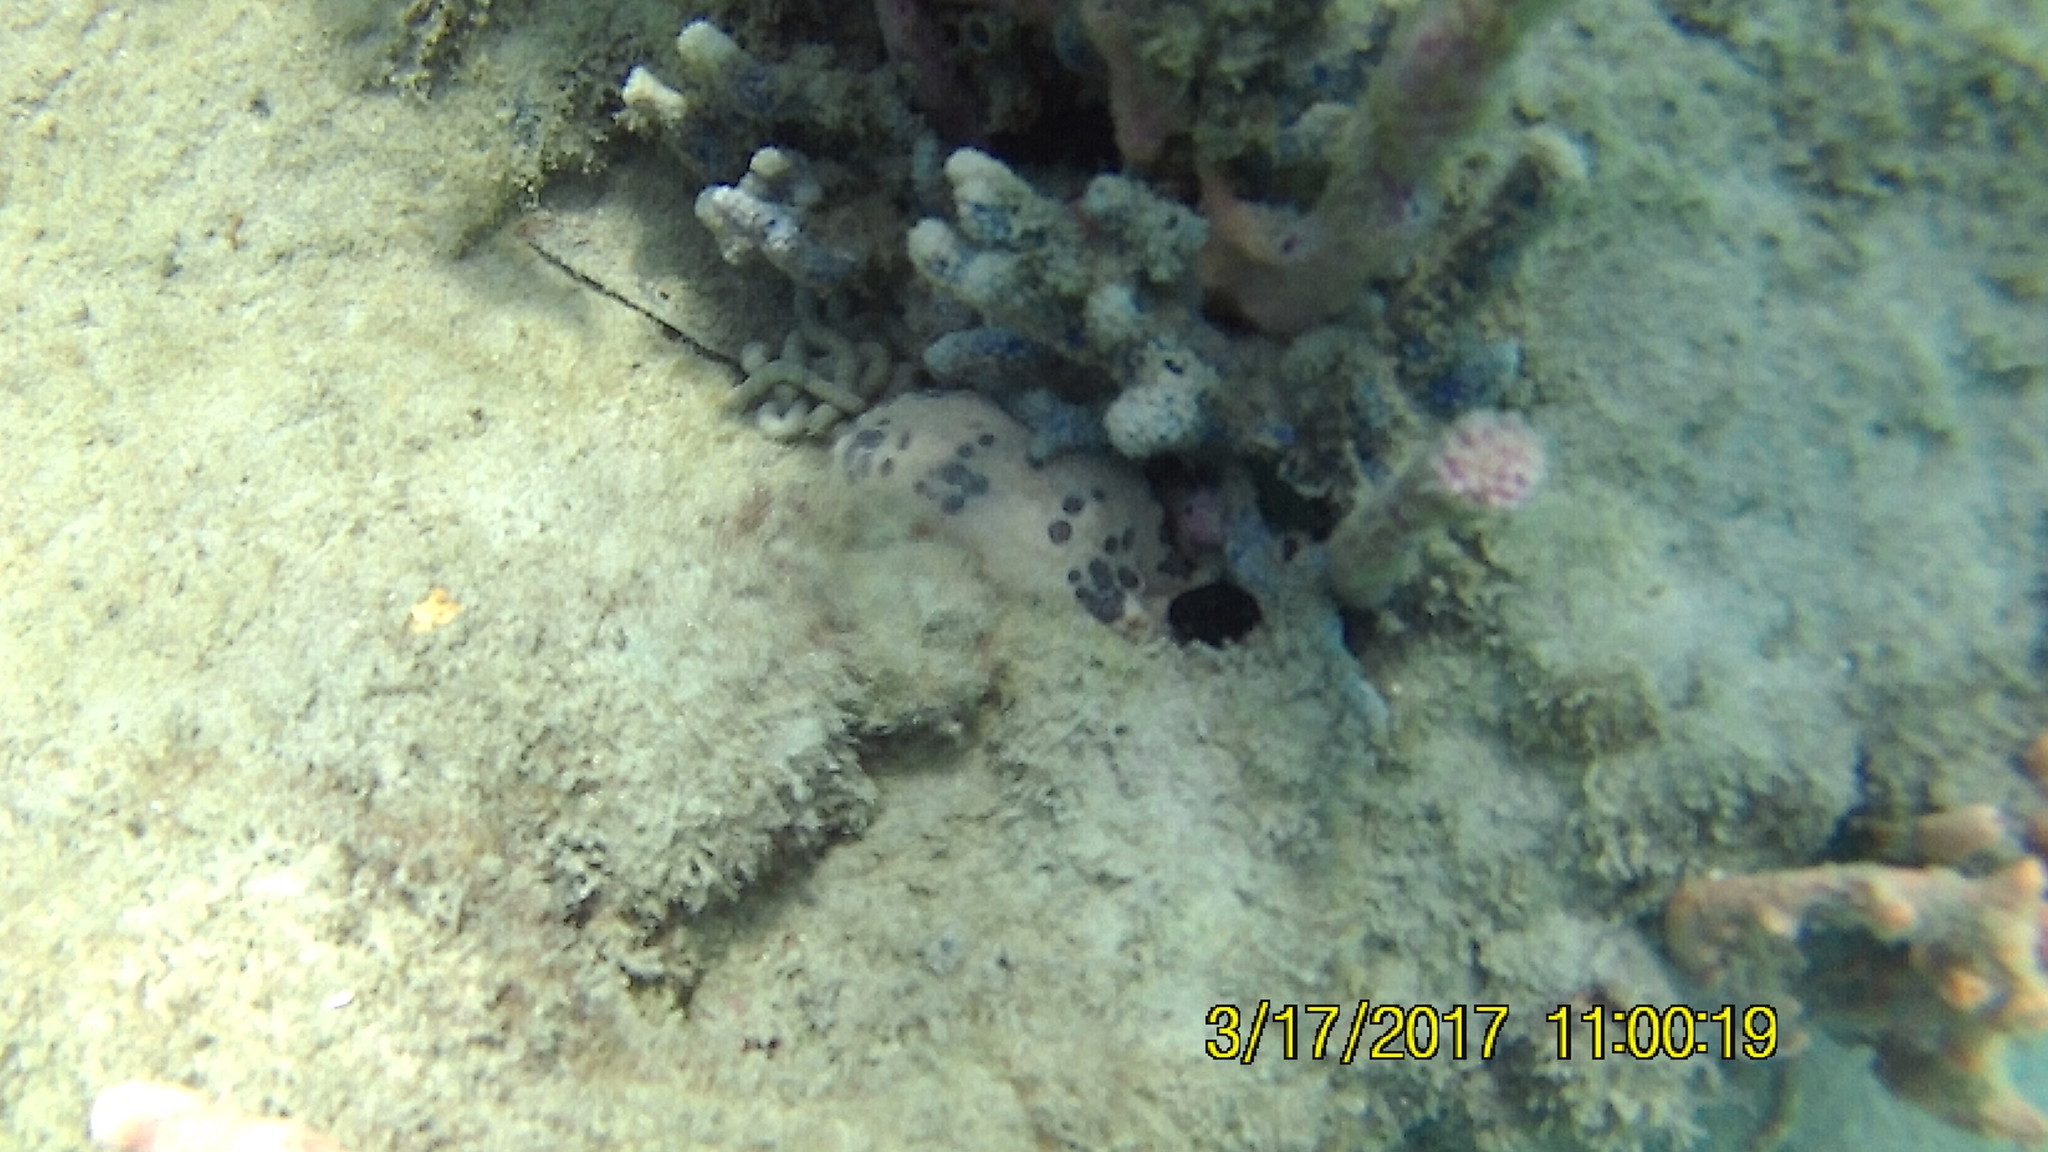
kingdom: Animalia
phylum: Echinodermata
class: Holothuroidea
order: Synallactida
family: Stichopodidae
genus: Isostichopus
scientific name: Isostichopus badionotus
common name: Chocolate chip cucumber
